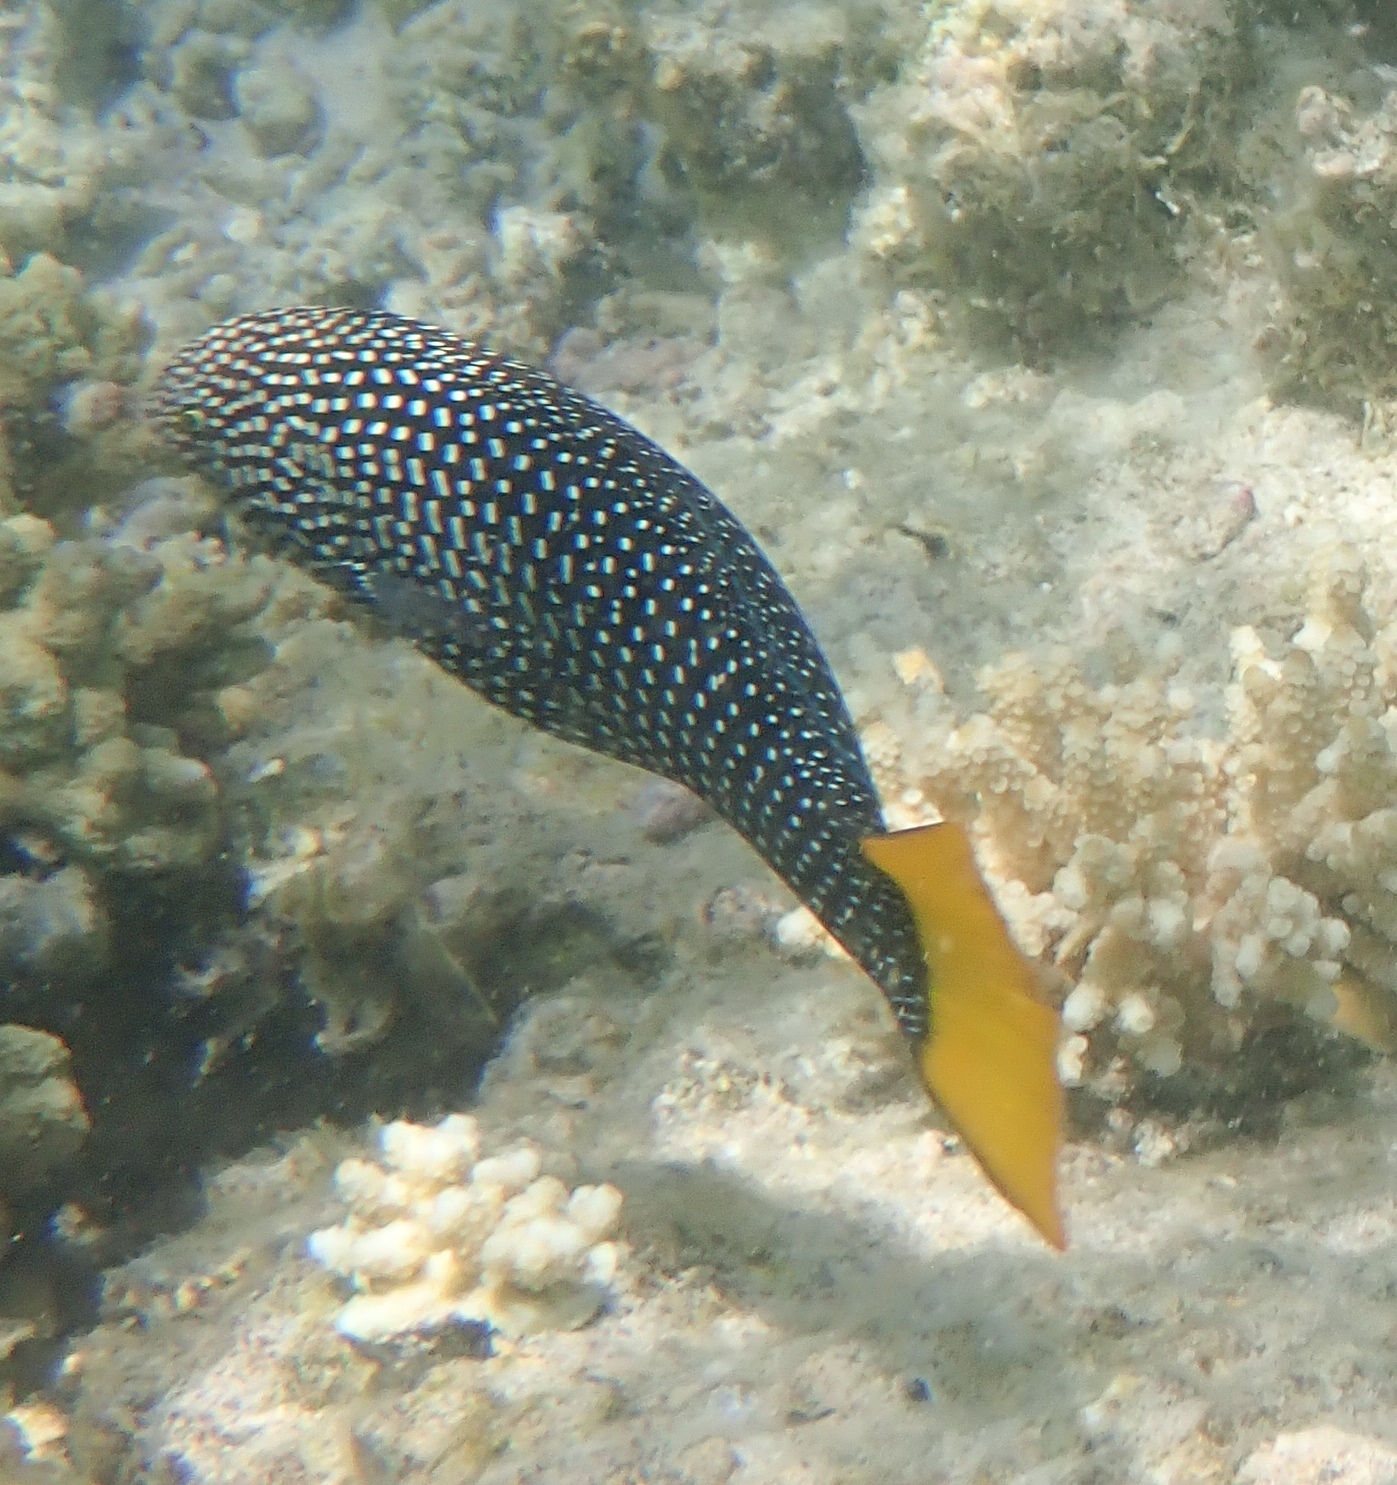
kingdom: Animalia
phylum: Chordata
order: Perciformes
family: Labridae
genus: Anampses
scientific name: Anampses meleagrides
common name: Yellowtail wrasse
